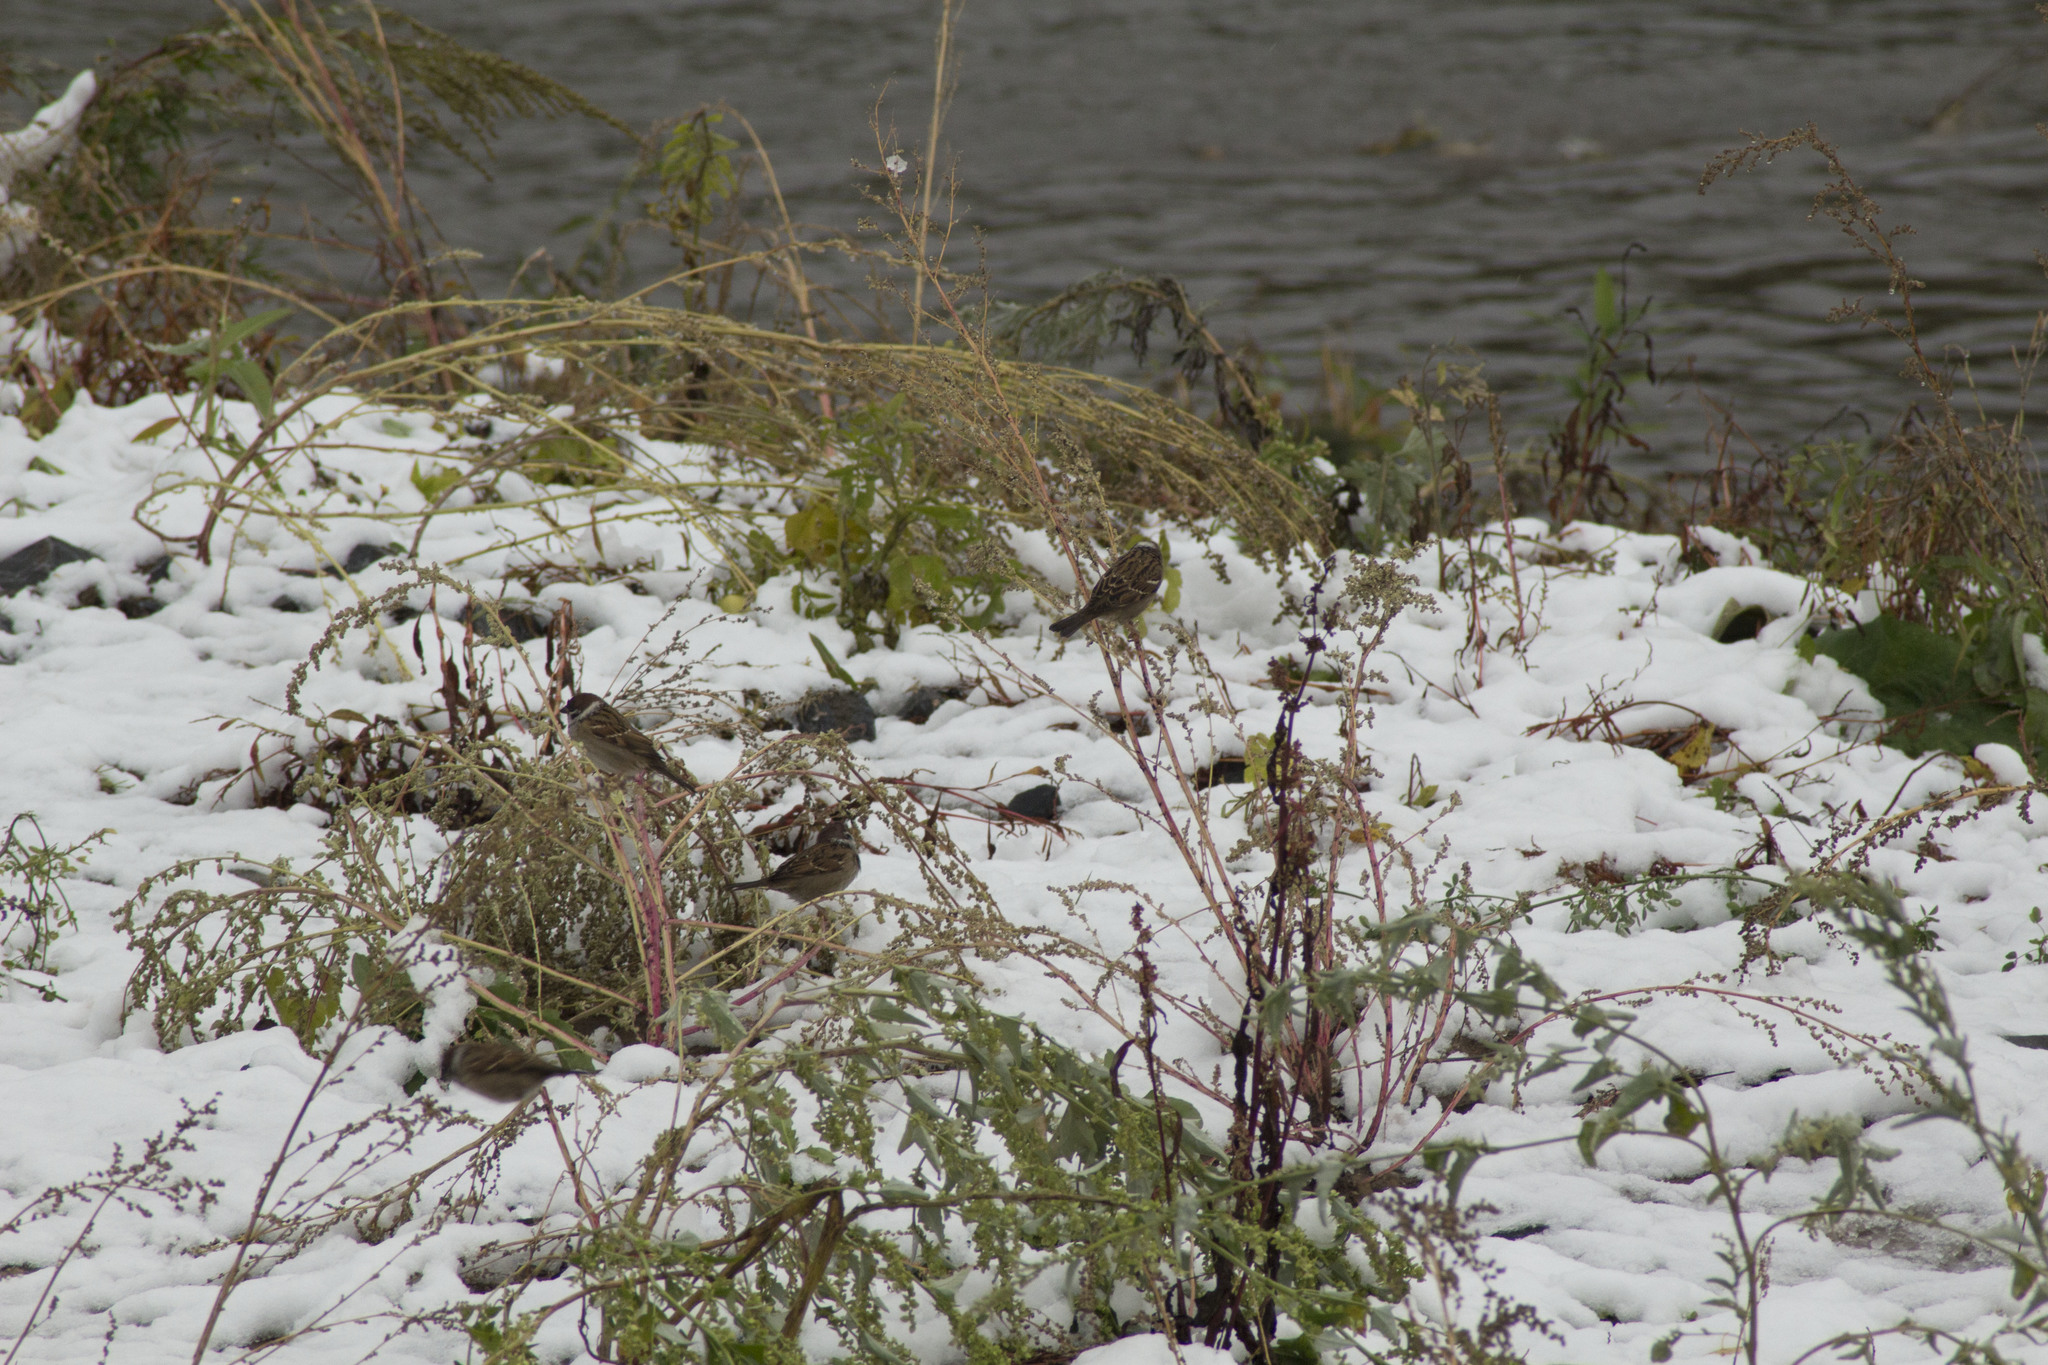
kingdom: Animalia
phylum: Chordata
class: Aves
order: Passeriformes
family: Passeridae
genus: Passer
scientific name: Passer montanus
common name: Eurasian tree sparrow
